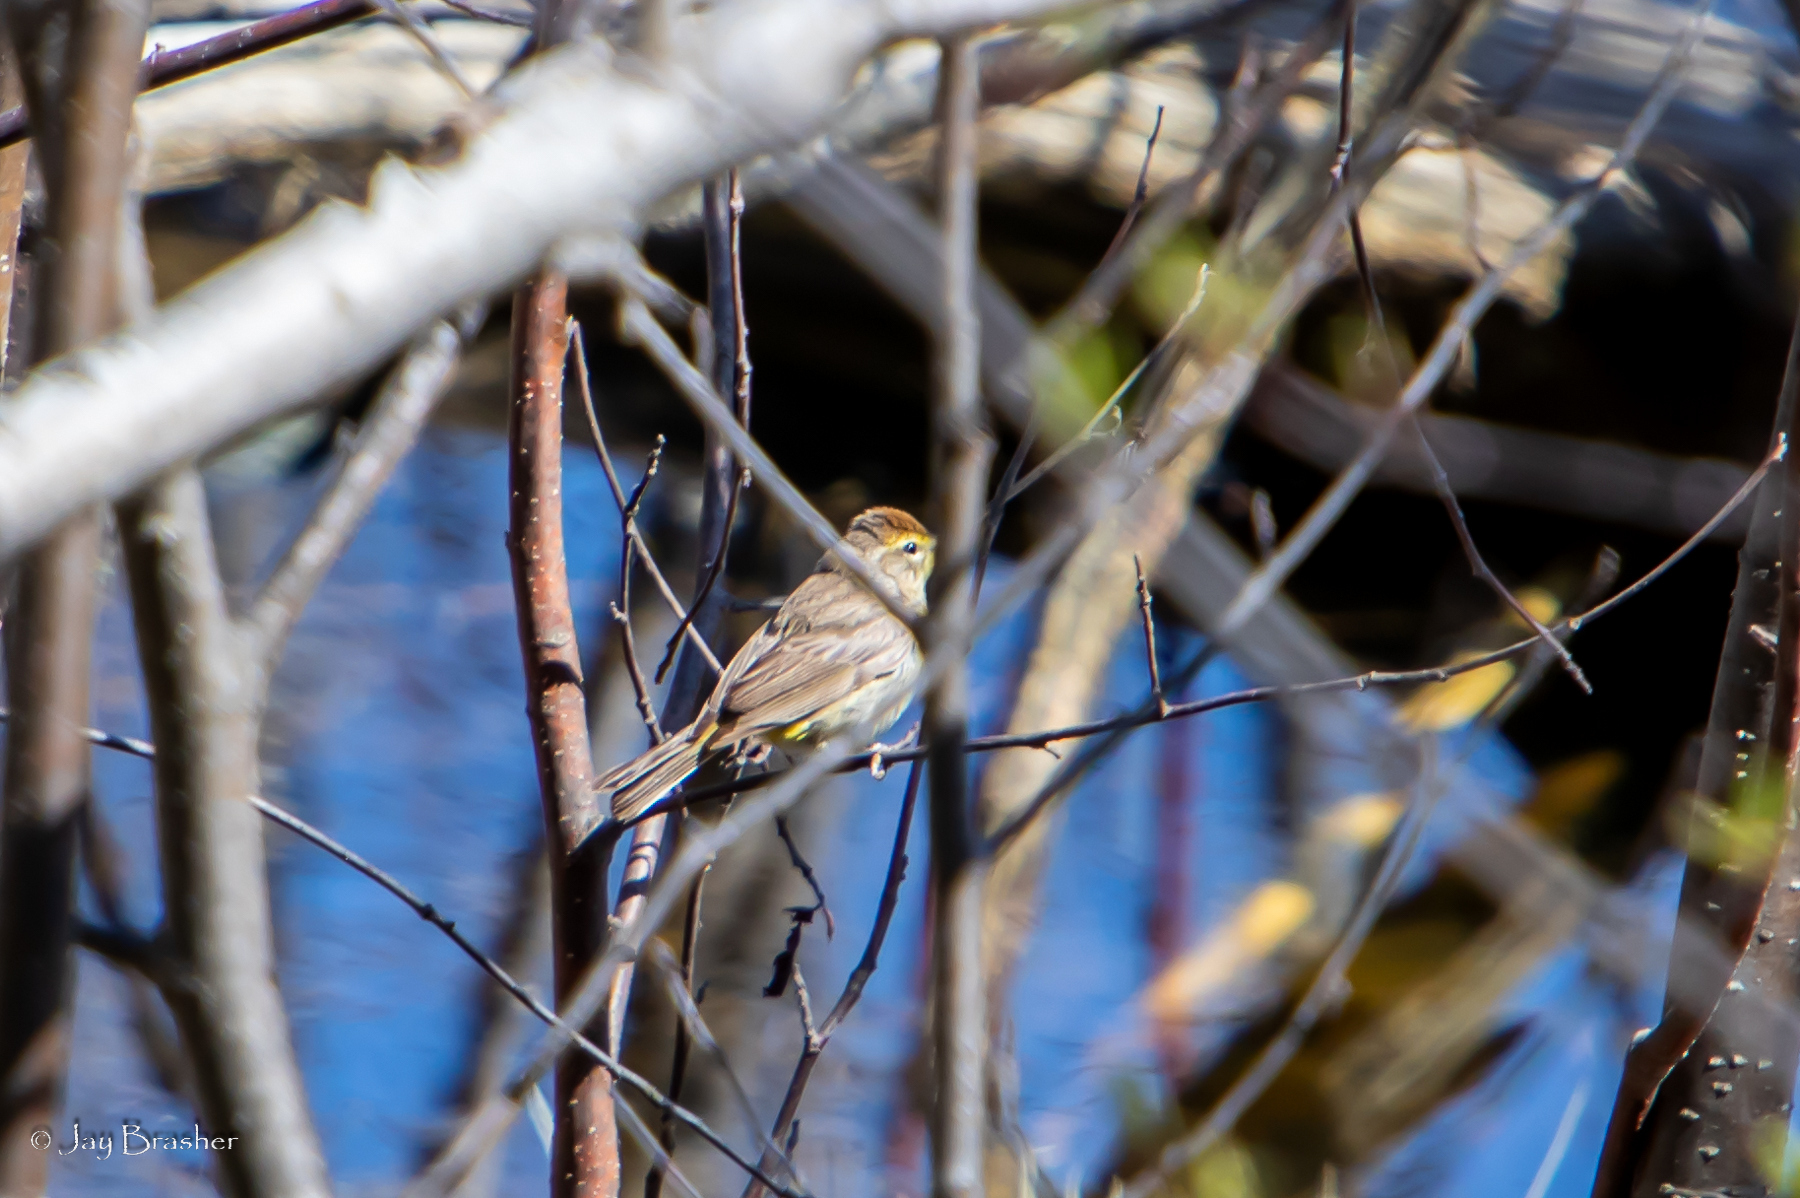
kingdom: Animalia
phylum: Chordata
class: Aves
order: Passeriformes
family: Parulidae
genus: Setophaga
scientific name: Setophaga palmarum
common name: Palm warbler
